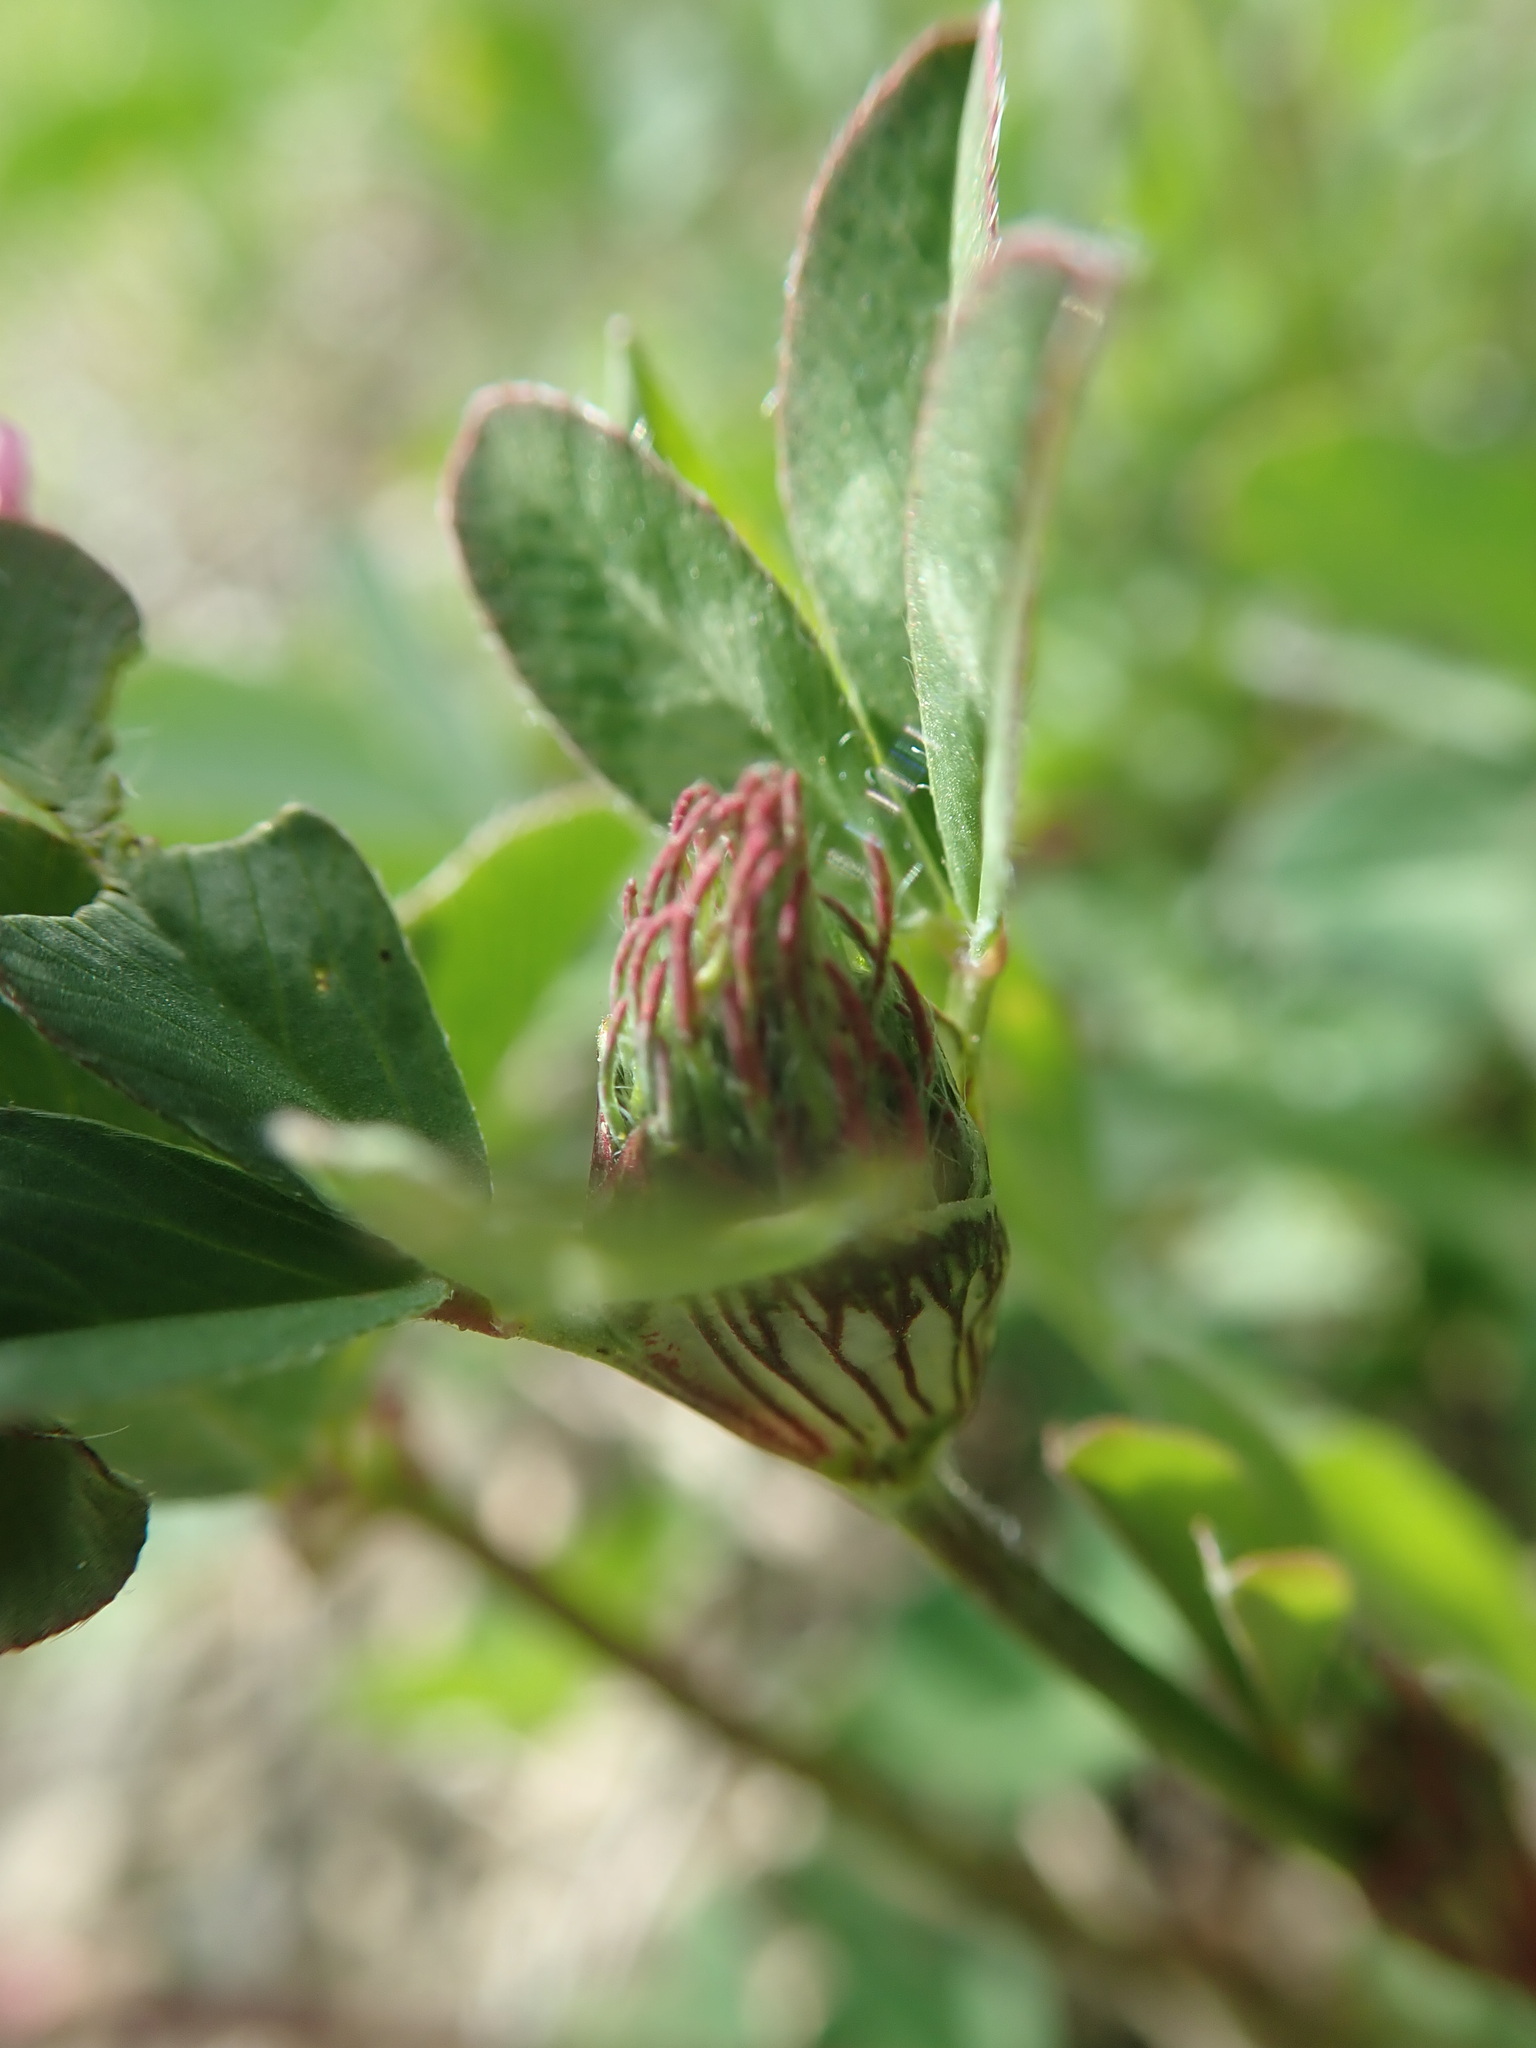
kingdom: Plantae
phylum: Tracheophyta
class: Magnoliopsida
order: Fabales
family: Fabaceae
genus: Trifolium
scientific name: Trifolium pratense
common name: Red clover
